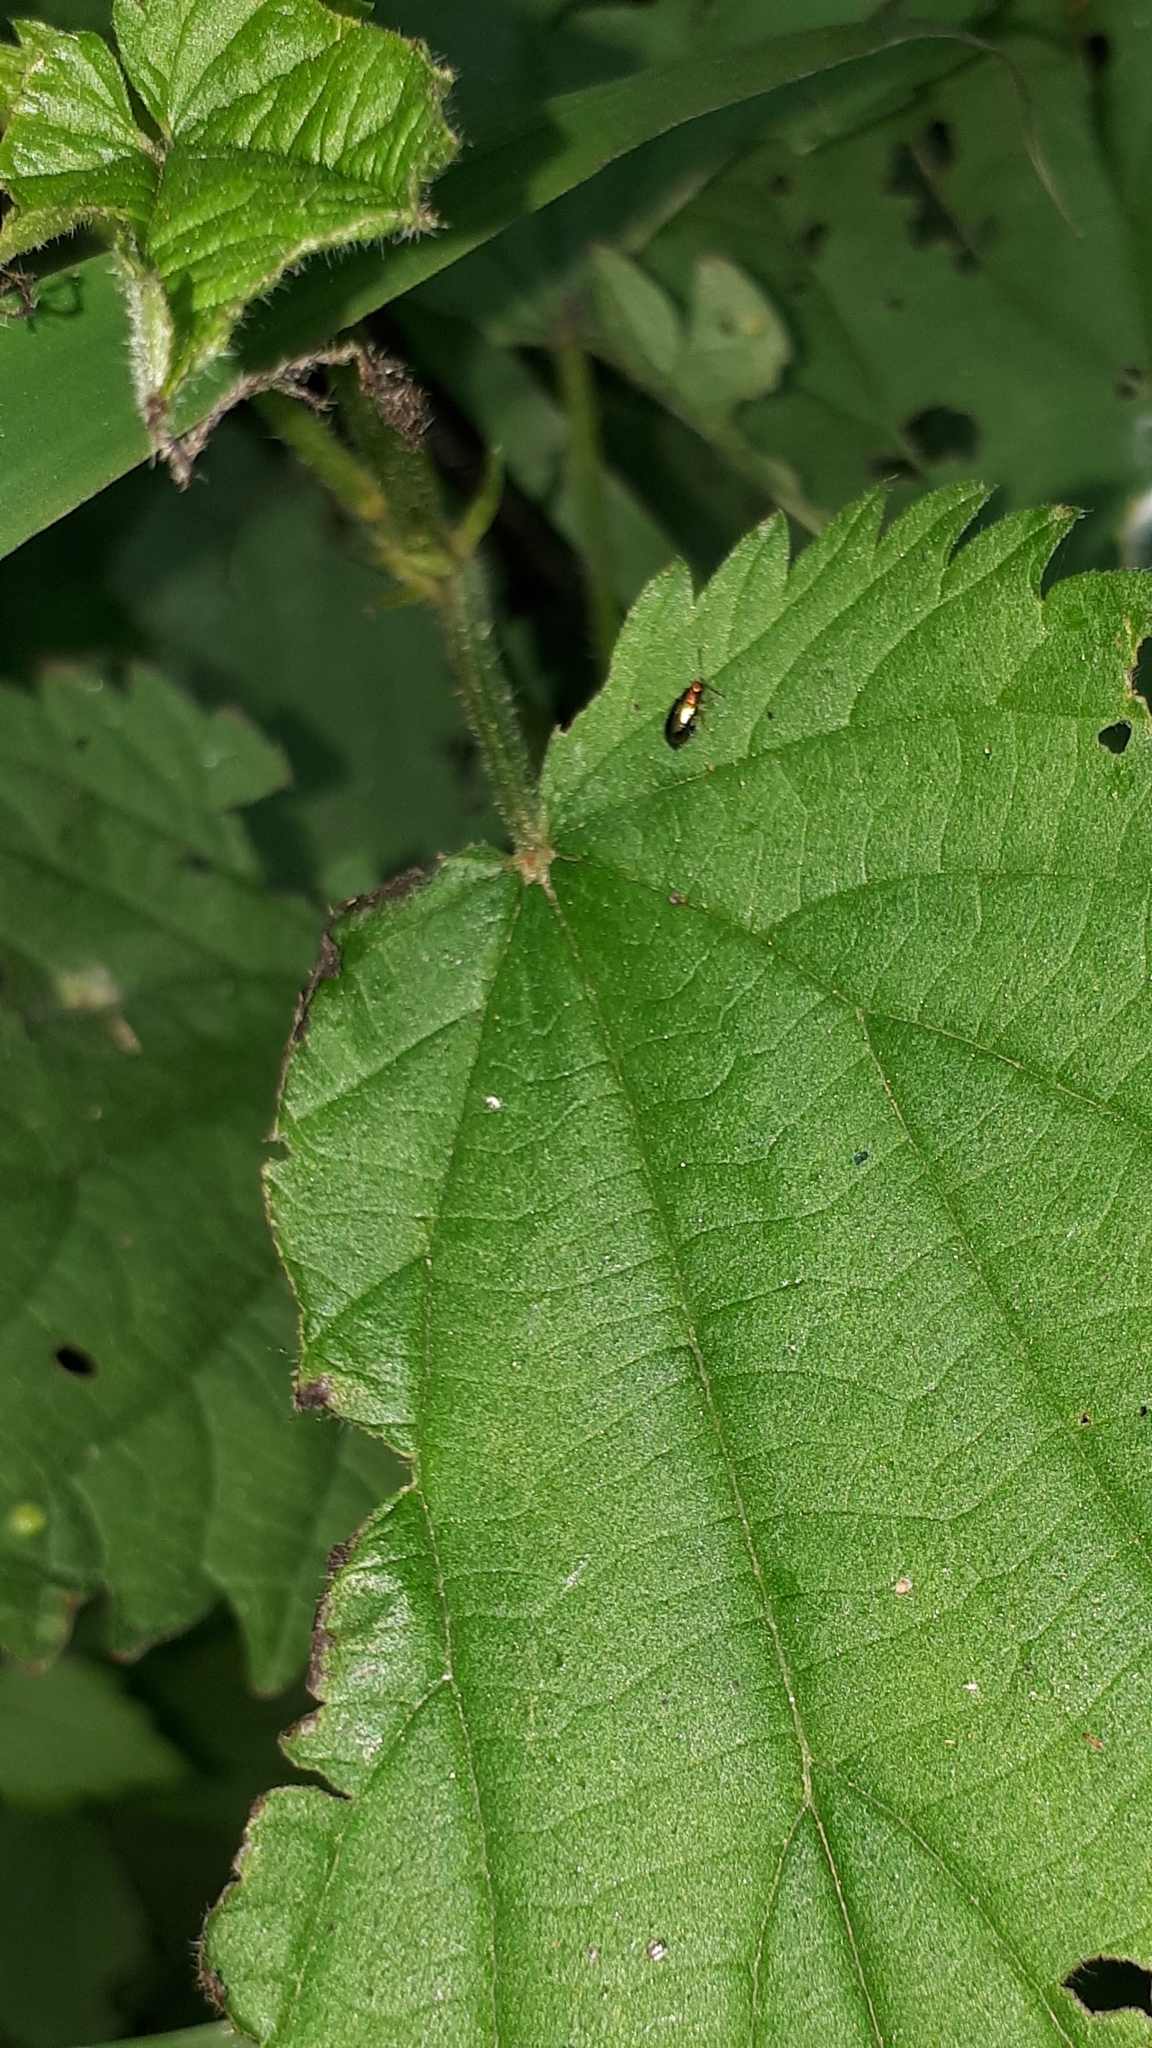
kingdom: Animalia
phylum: Arthropoda
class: Insecta
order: Coleoptera
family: Chrysomelidae
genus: Crepidodera
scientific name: Crepidodera aurata
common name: Willow flea beetle
